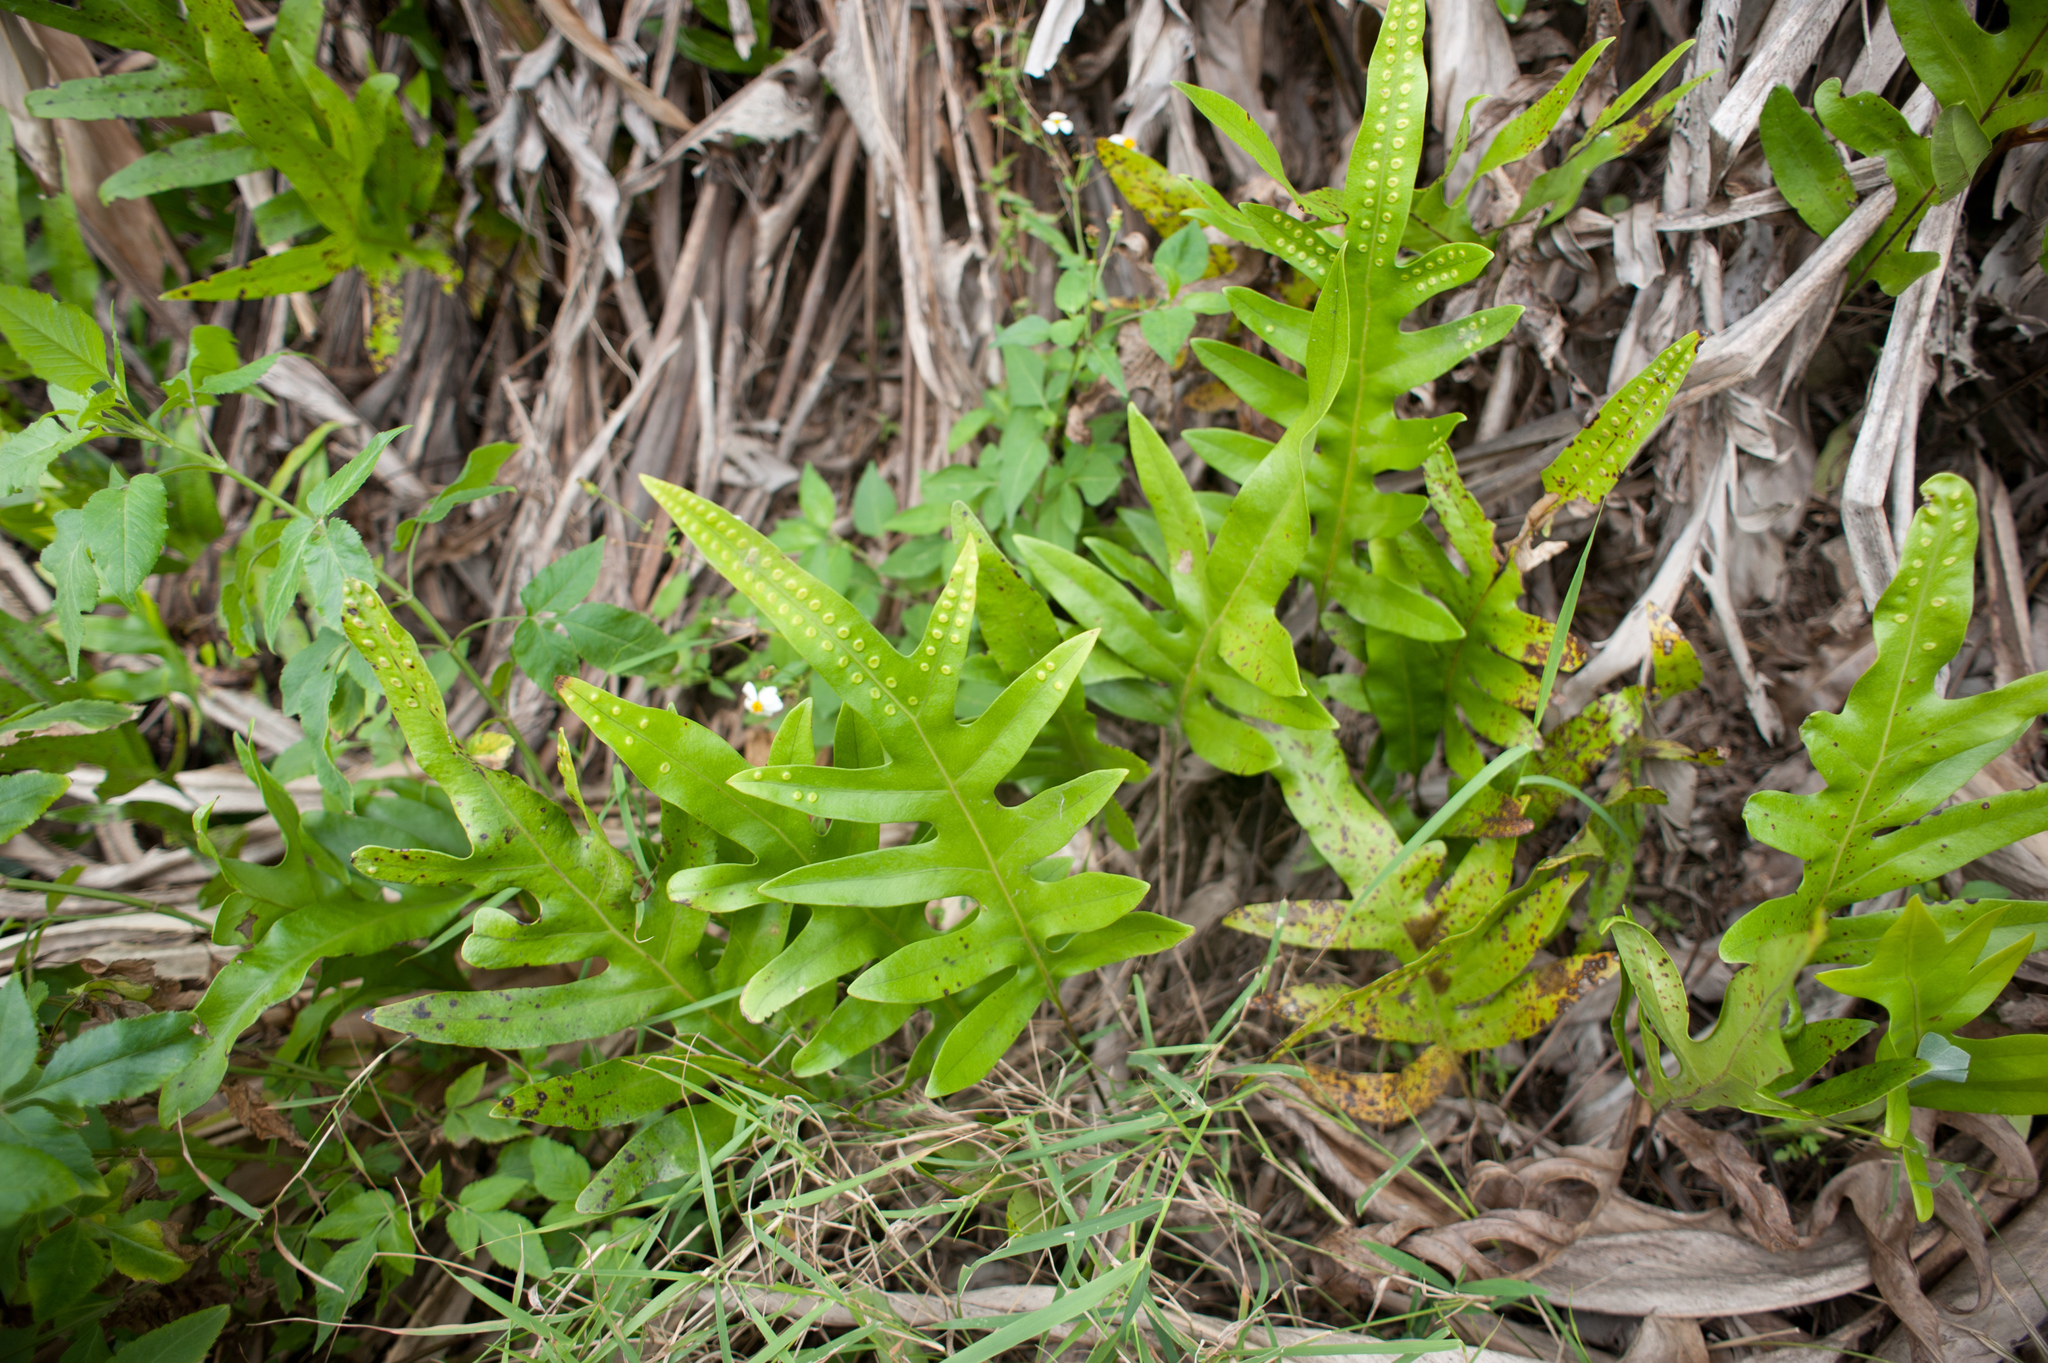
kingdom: Plantae
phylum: Tracheophyta
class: Polypodiopsida
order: Polypodiales
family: Polypodiaceae
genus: Microsorum
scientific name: Microsorum scolopendria
